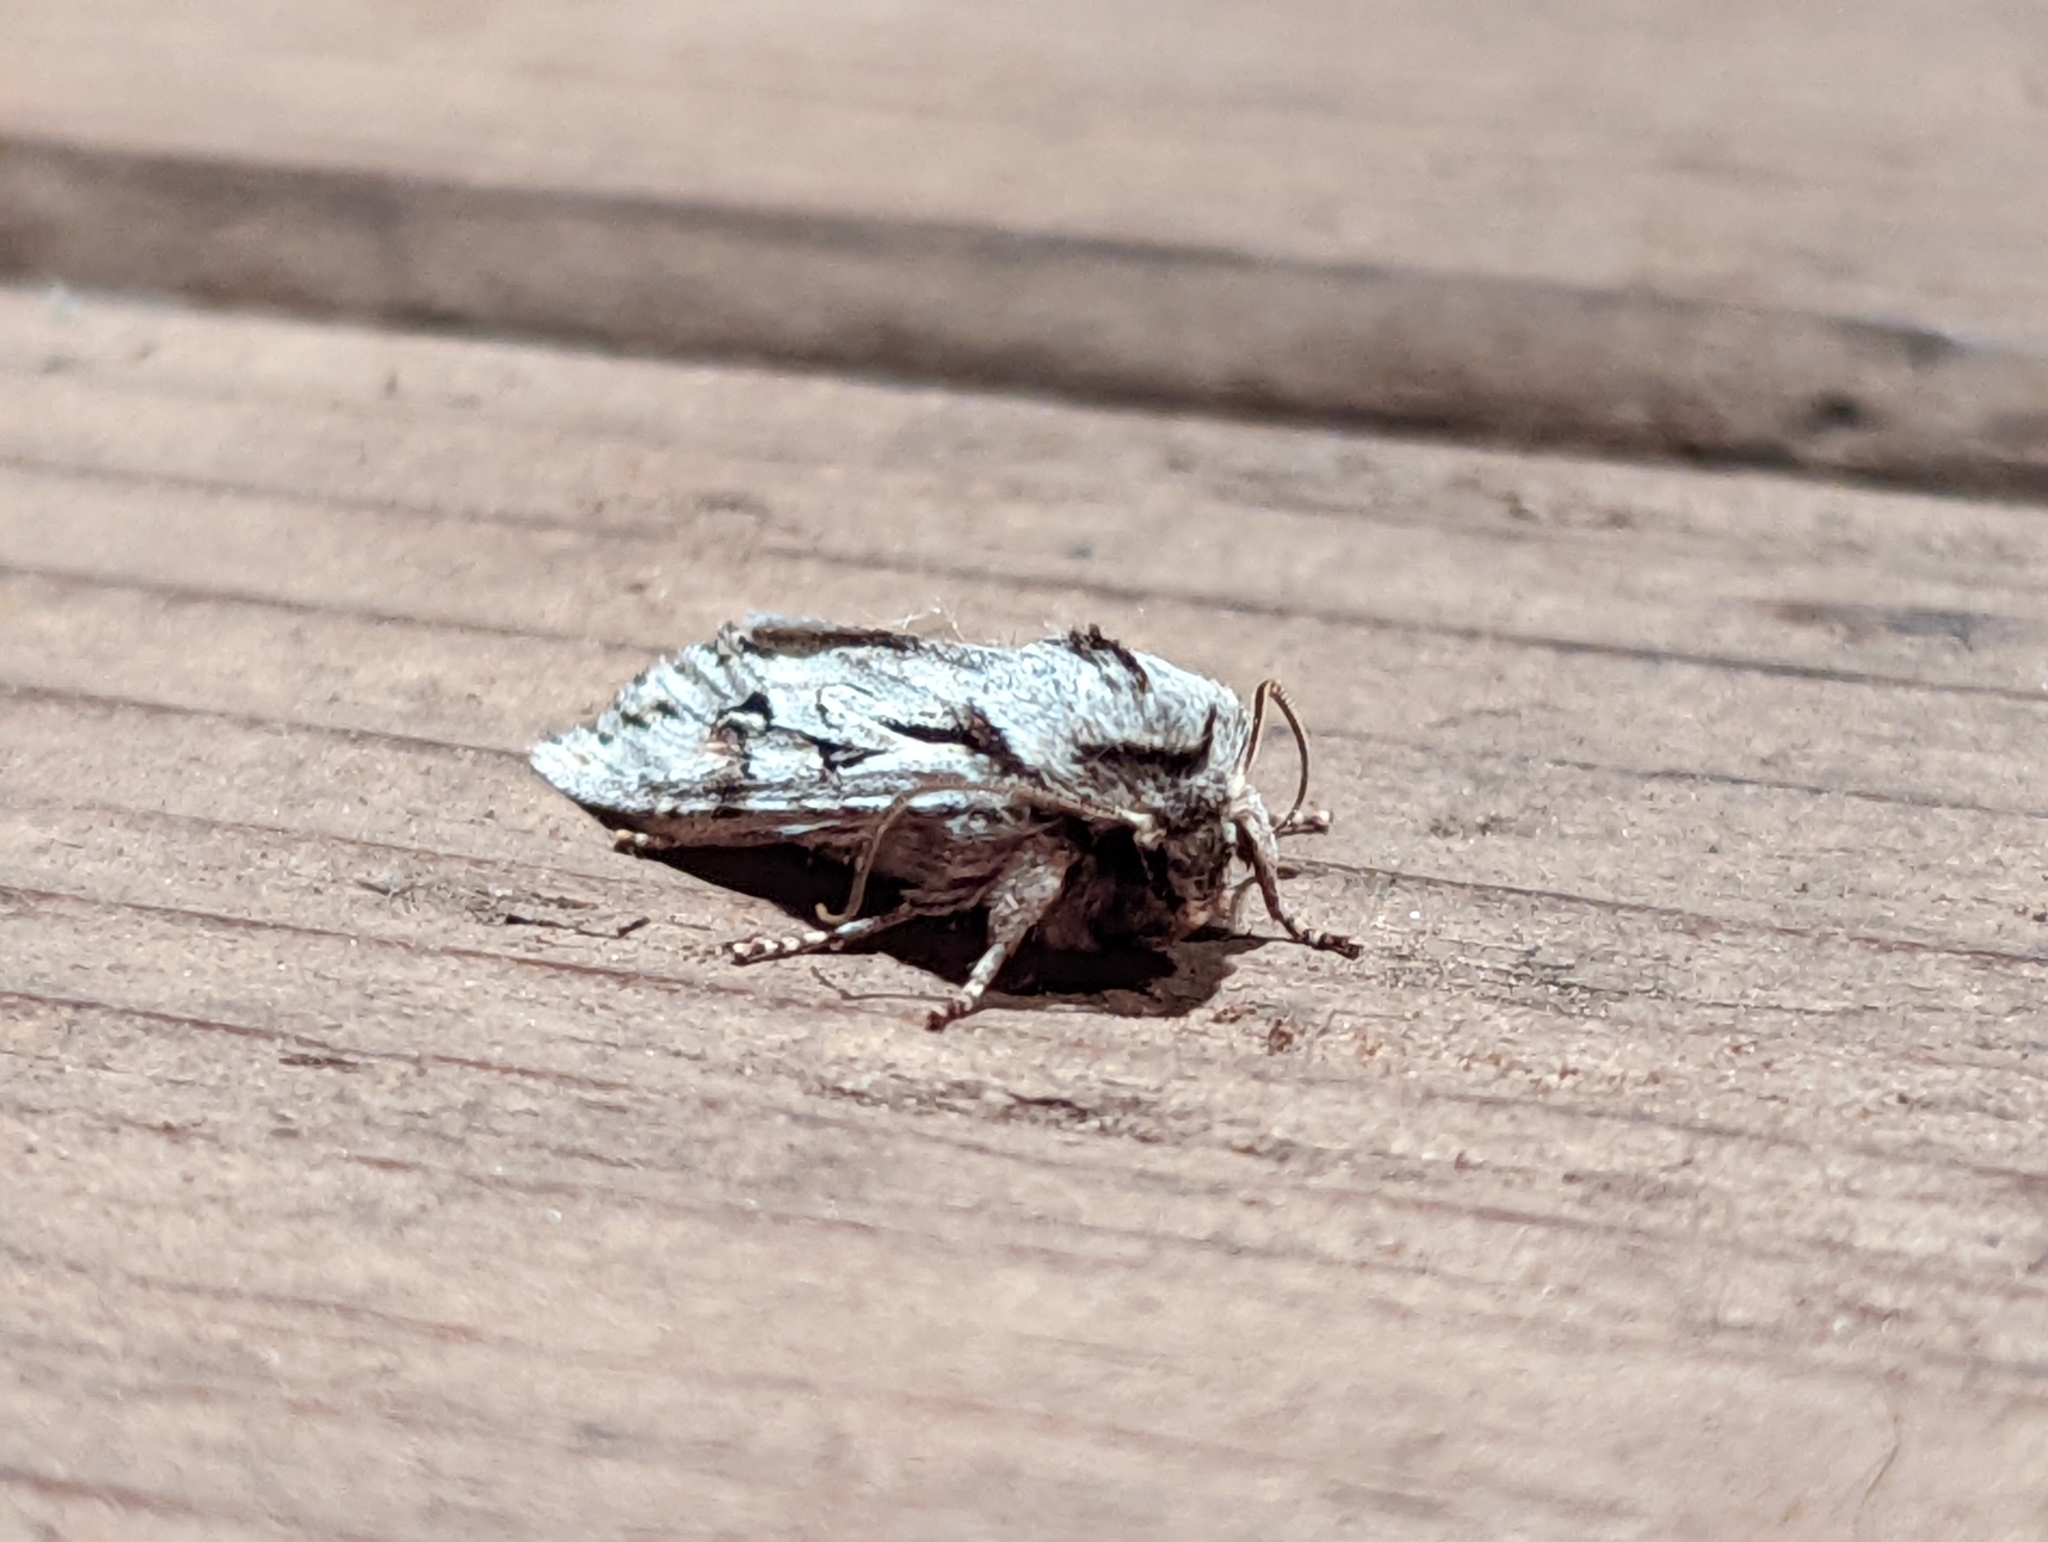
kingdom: Animalia
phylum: Arthropoda
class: Insecta
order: Lepidoptera
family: Noctuidae
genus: Egira
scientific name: Egira crucialis
